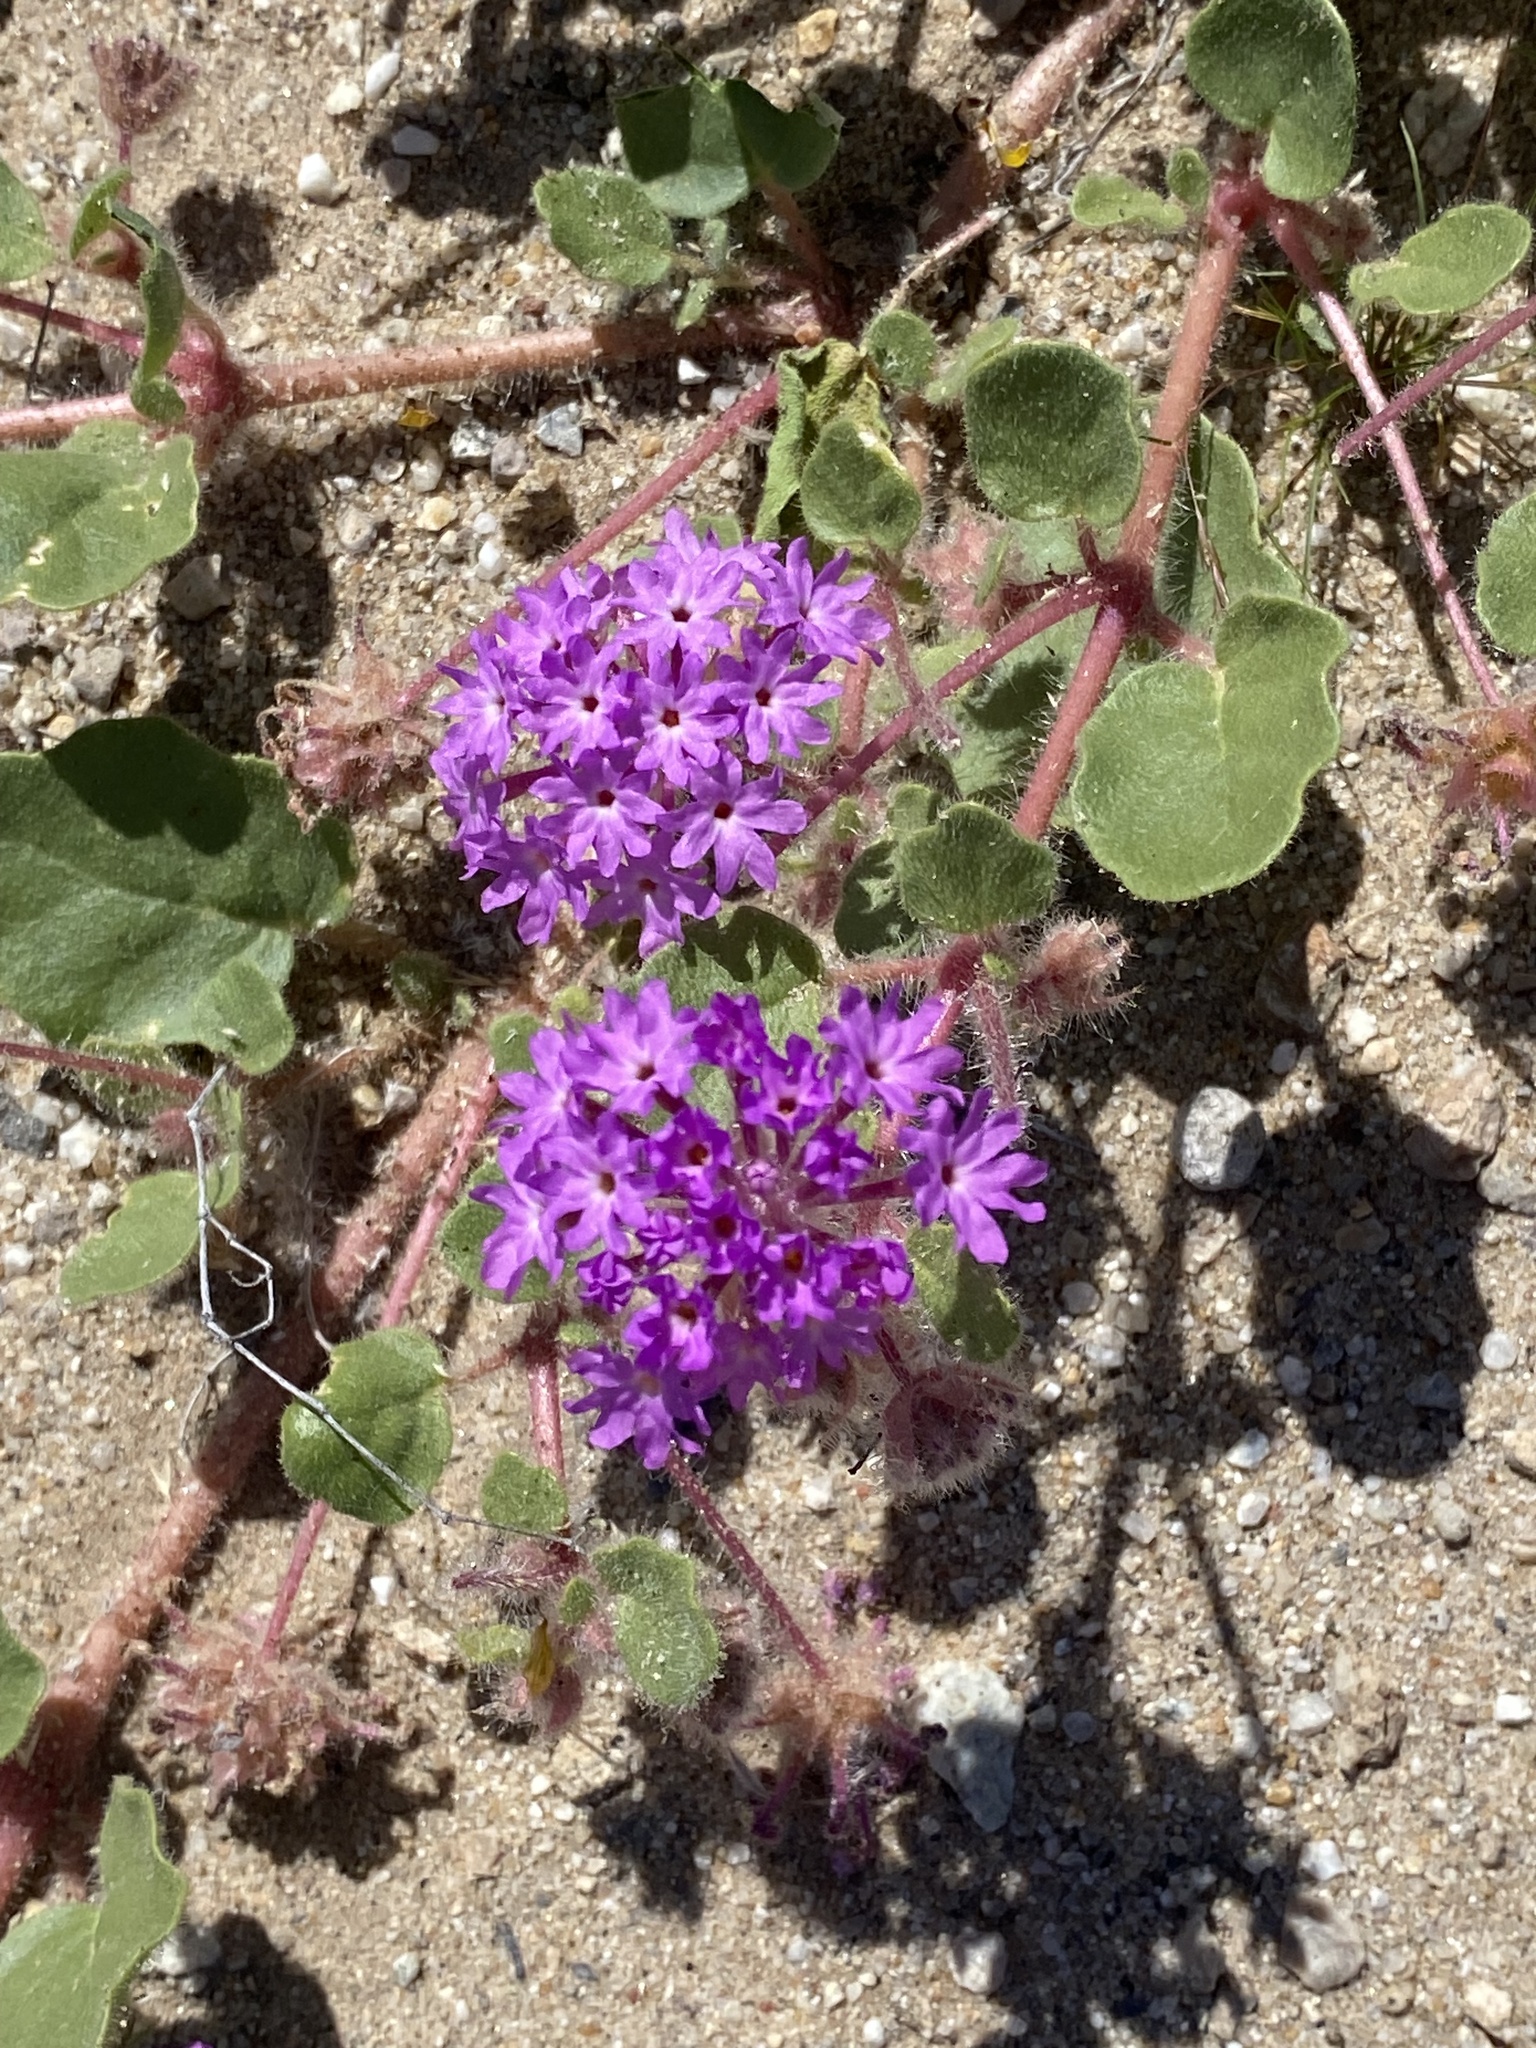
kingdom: Plantae
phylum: Tracheophyta
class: Magnoliopsida
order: Caryophyllales
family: Nyctaginaceae
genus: Abronia
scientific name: Abronia villosa
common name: Desert sand-verbena
